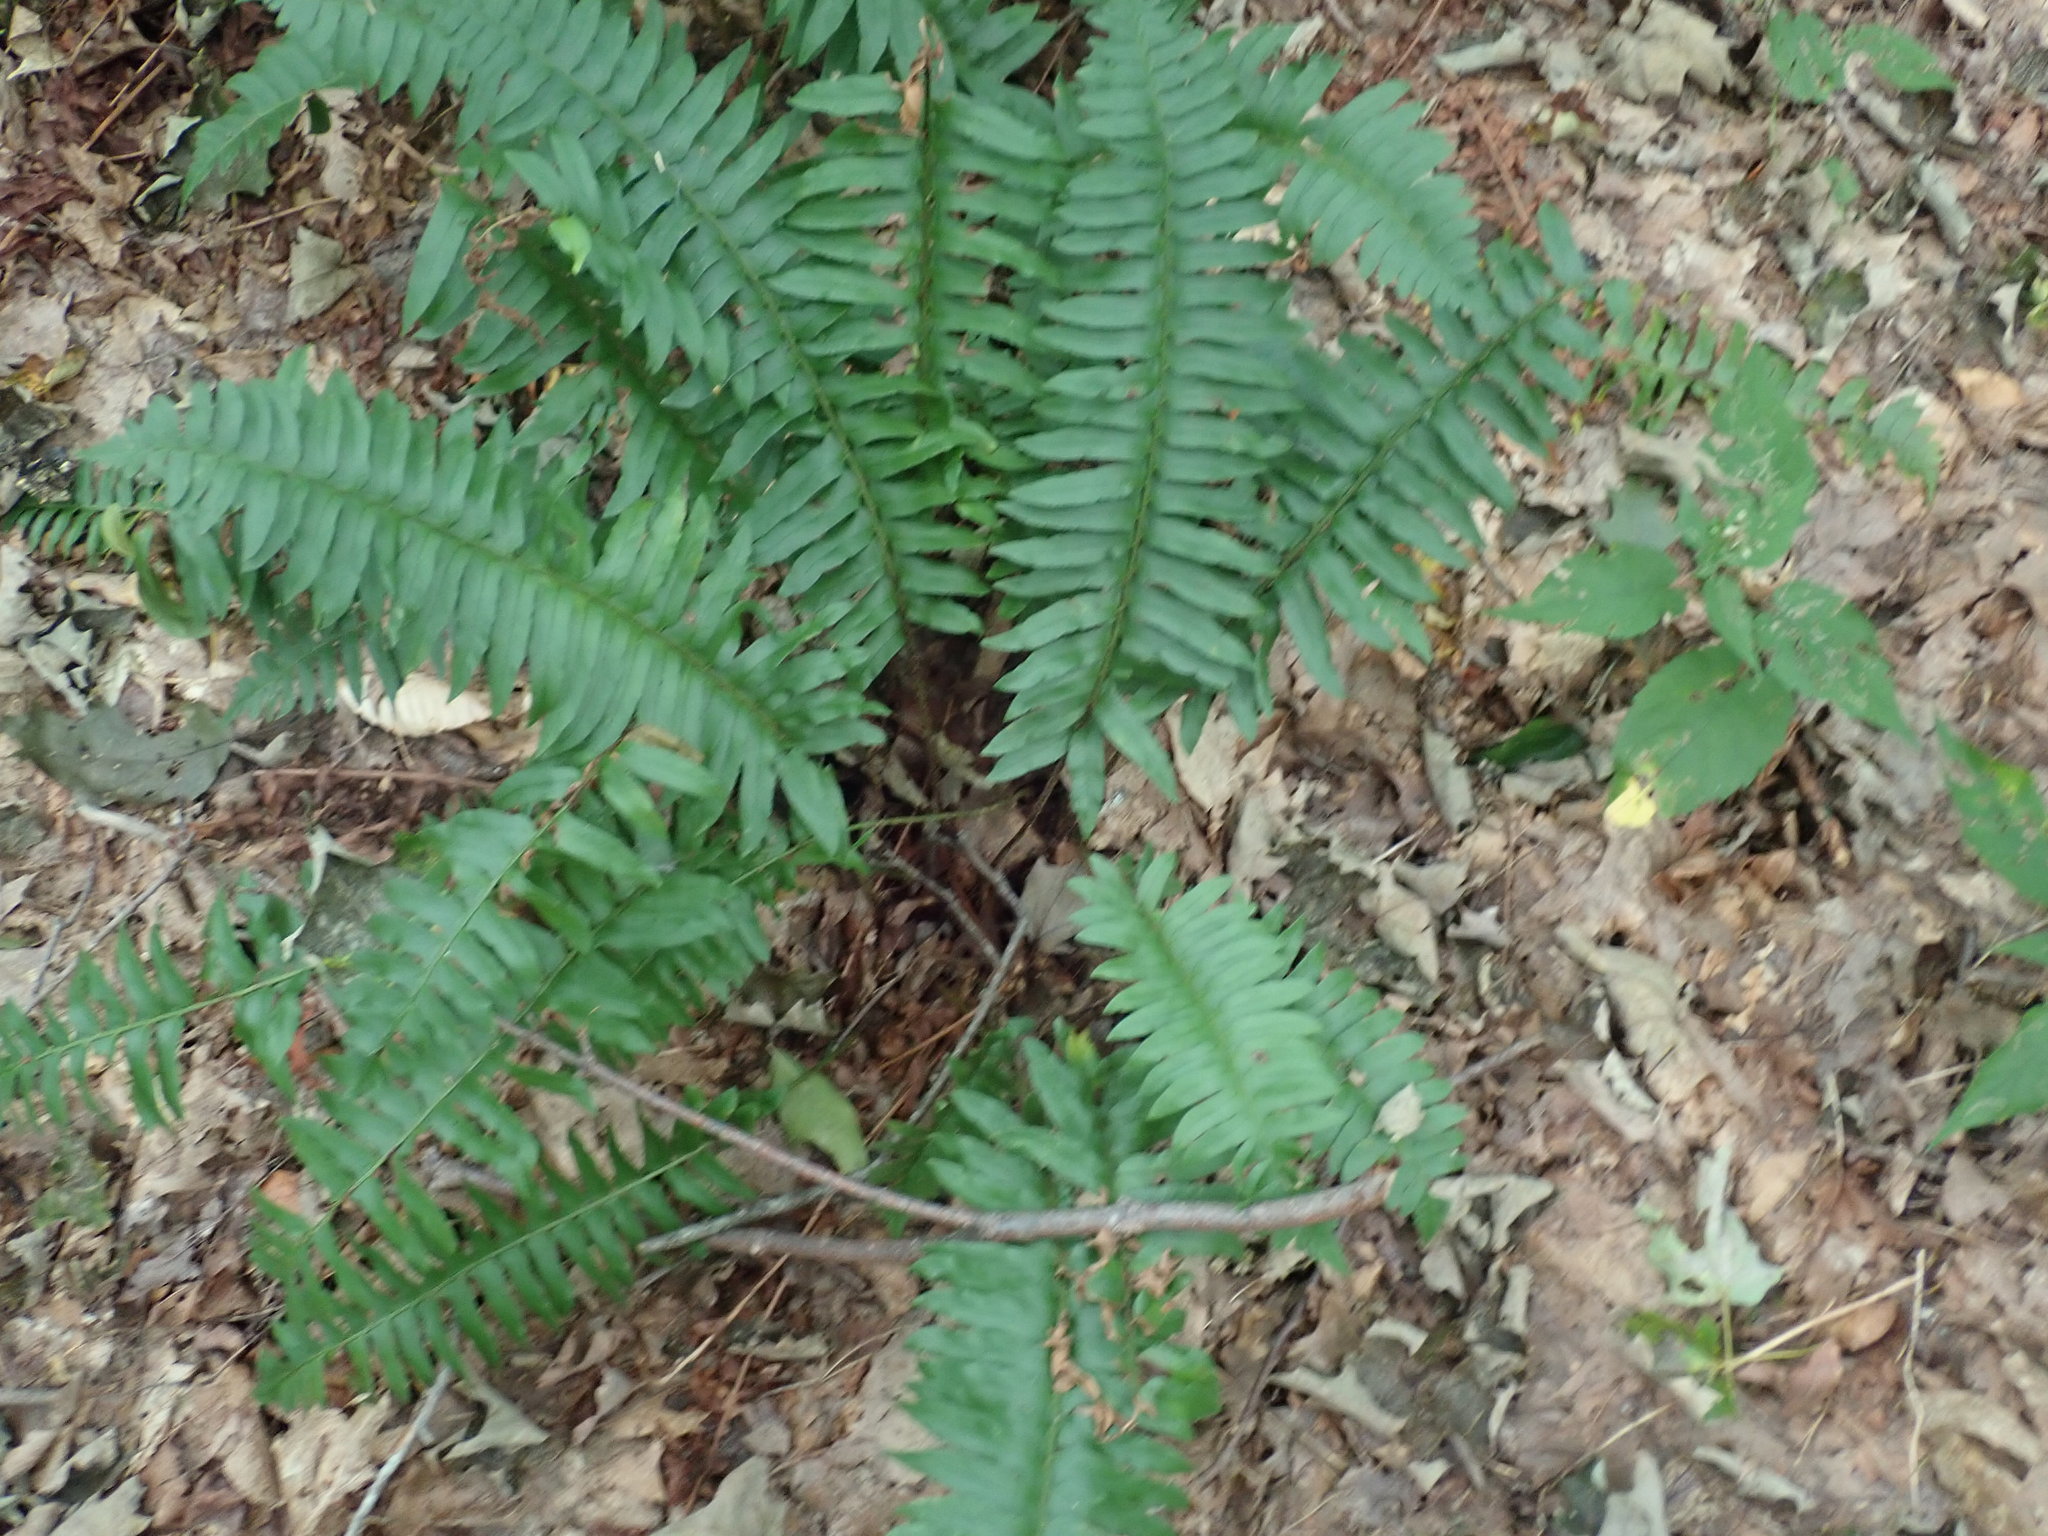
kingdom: Plantae
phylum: Tracheophyta
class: Polypodiopsida
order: Polypodiales
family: Dryopteridaceae
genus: Polystichum
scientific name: Polystichum acrostichoides
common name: Christmas fern
